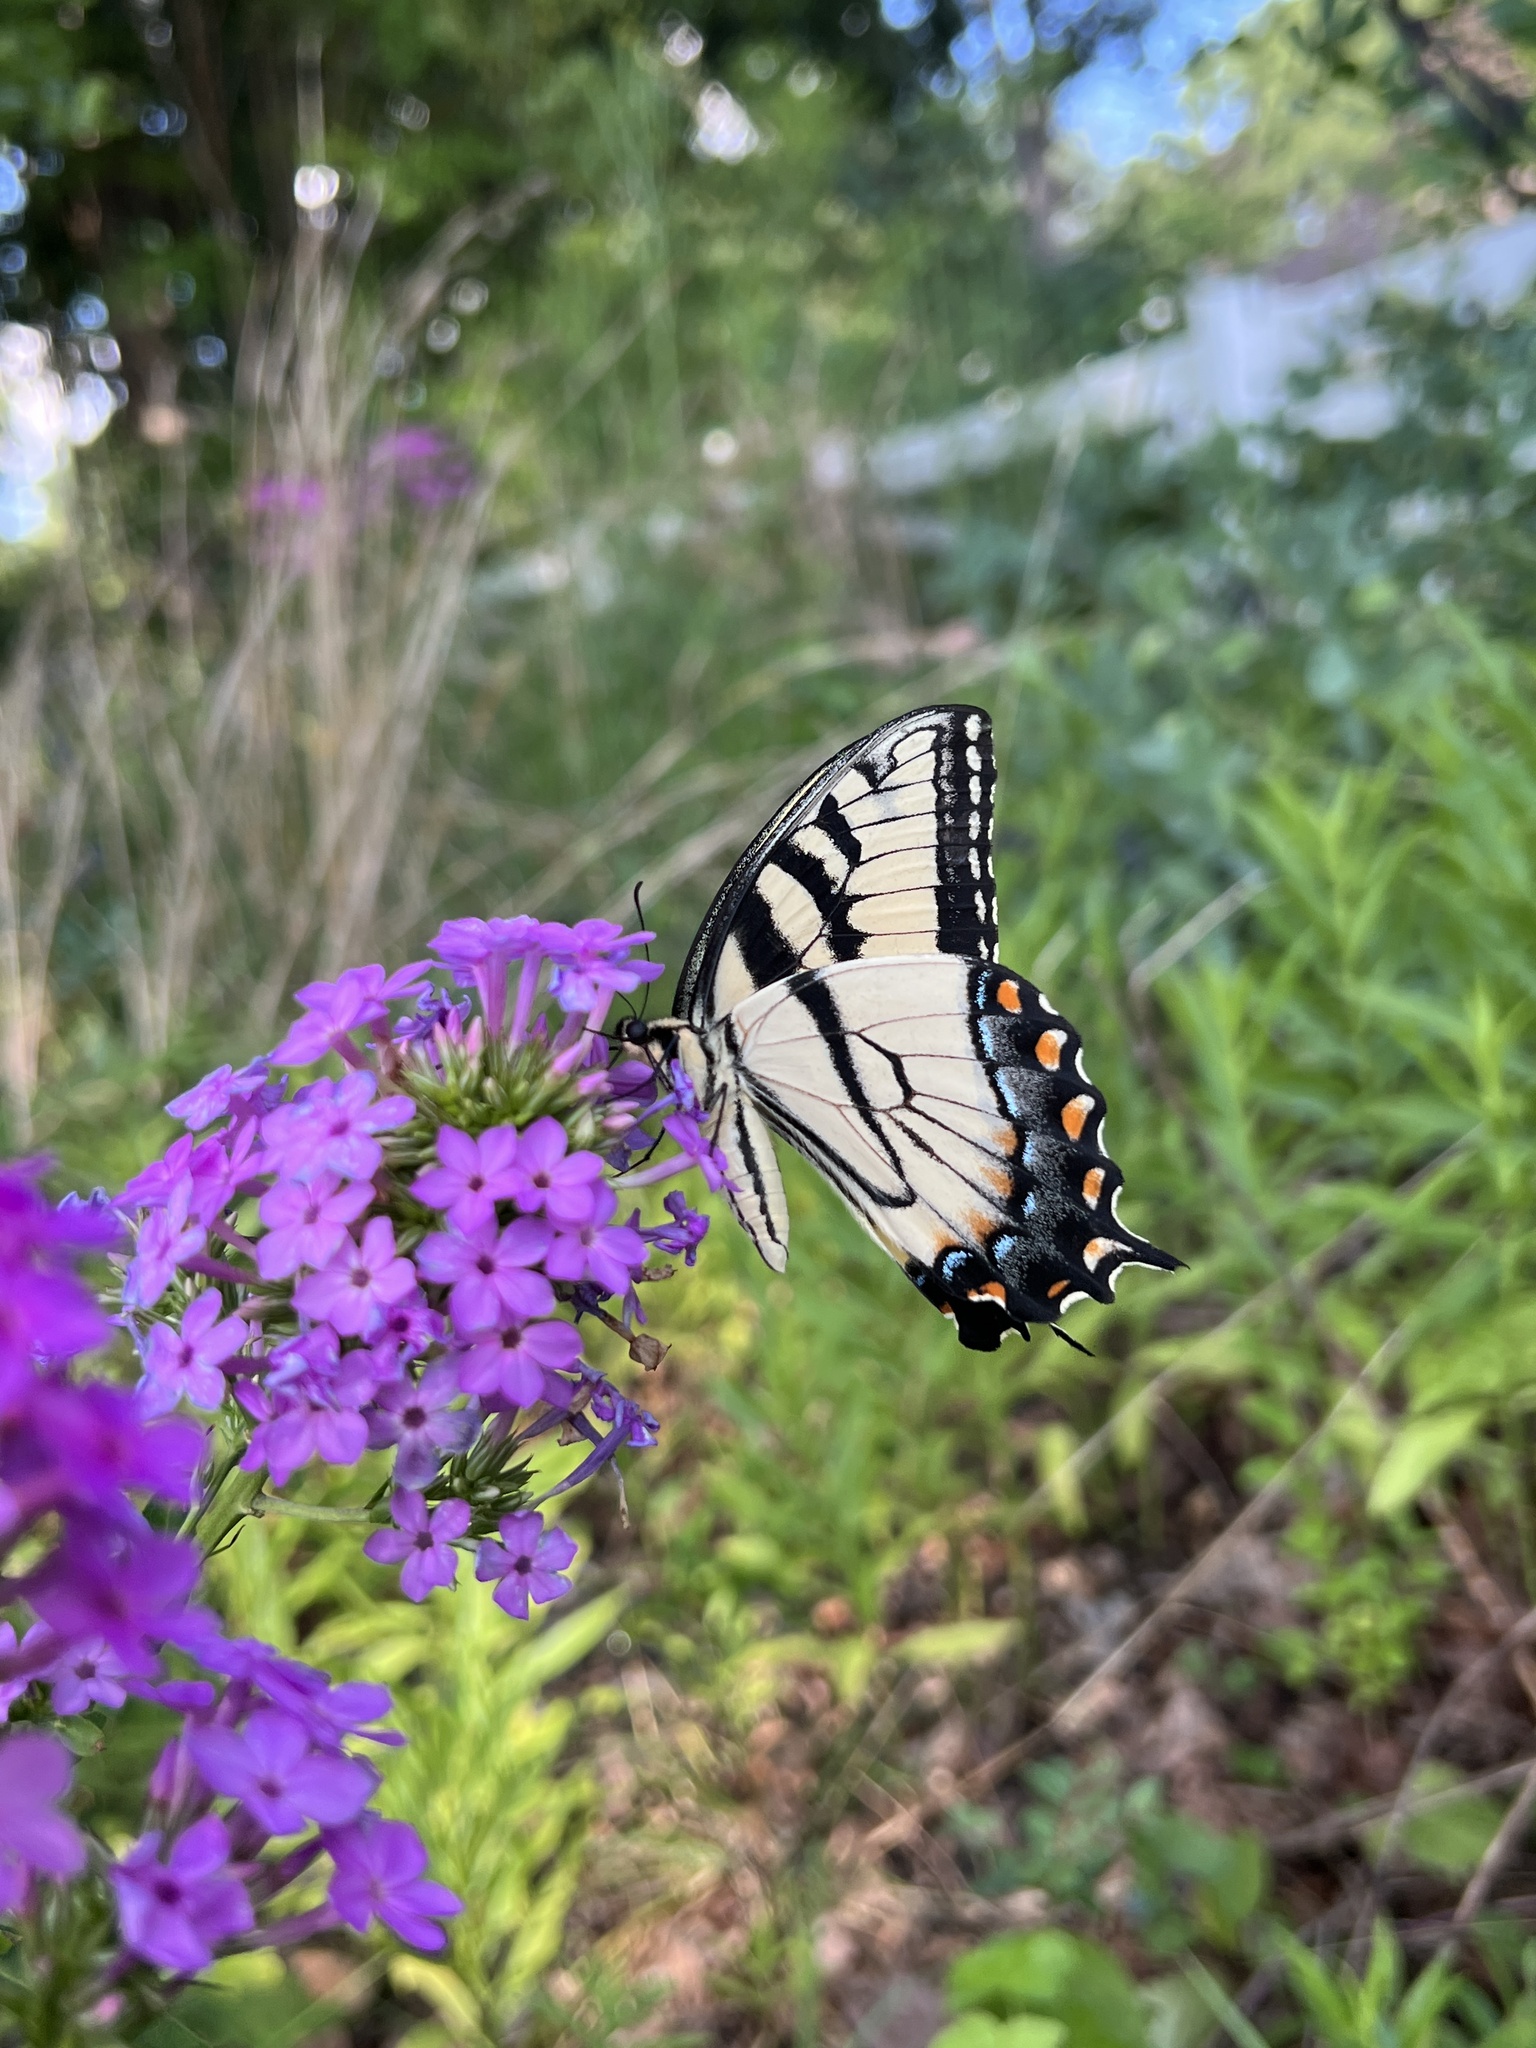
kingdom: Animalia
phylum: Arthropoda
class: Insecta
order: Lepidoptera
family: Papilionidae
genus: Papilio
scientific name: Papilio glaucus
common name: Tiger swallowtail
